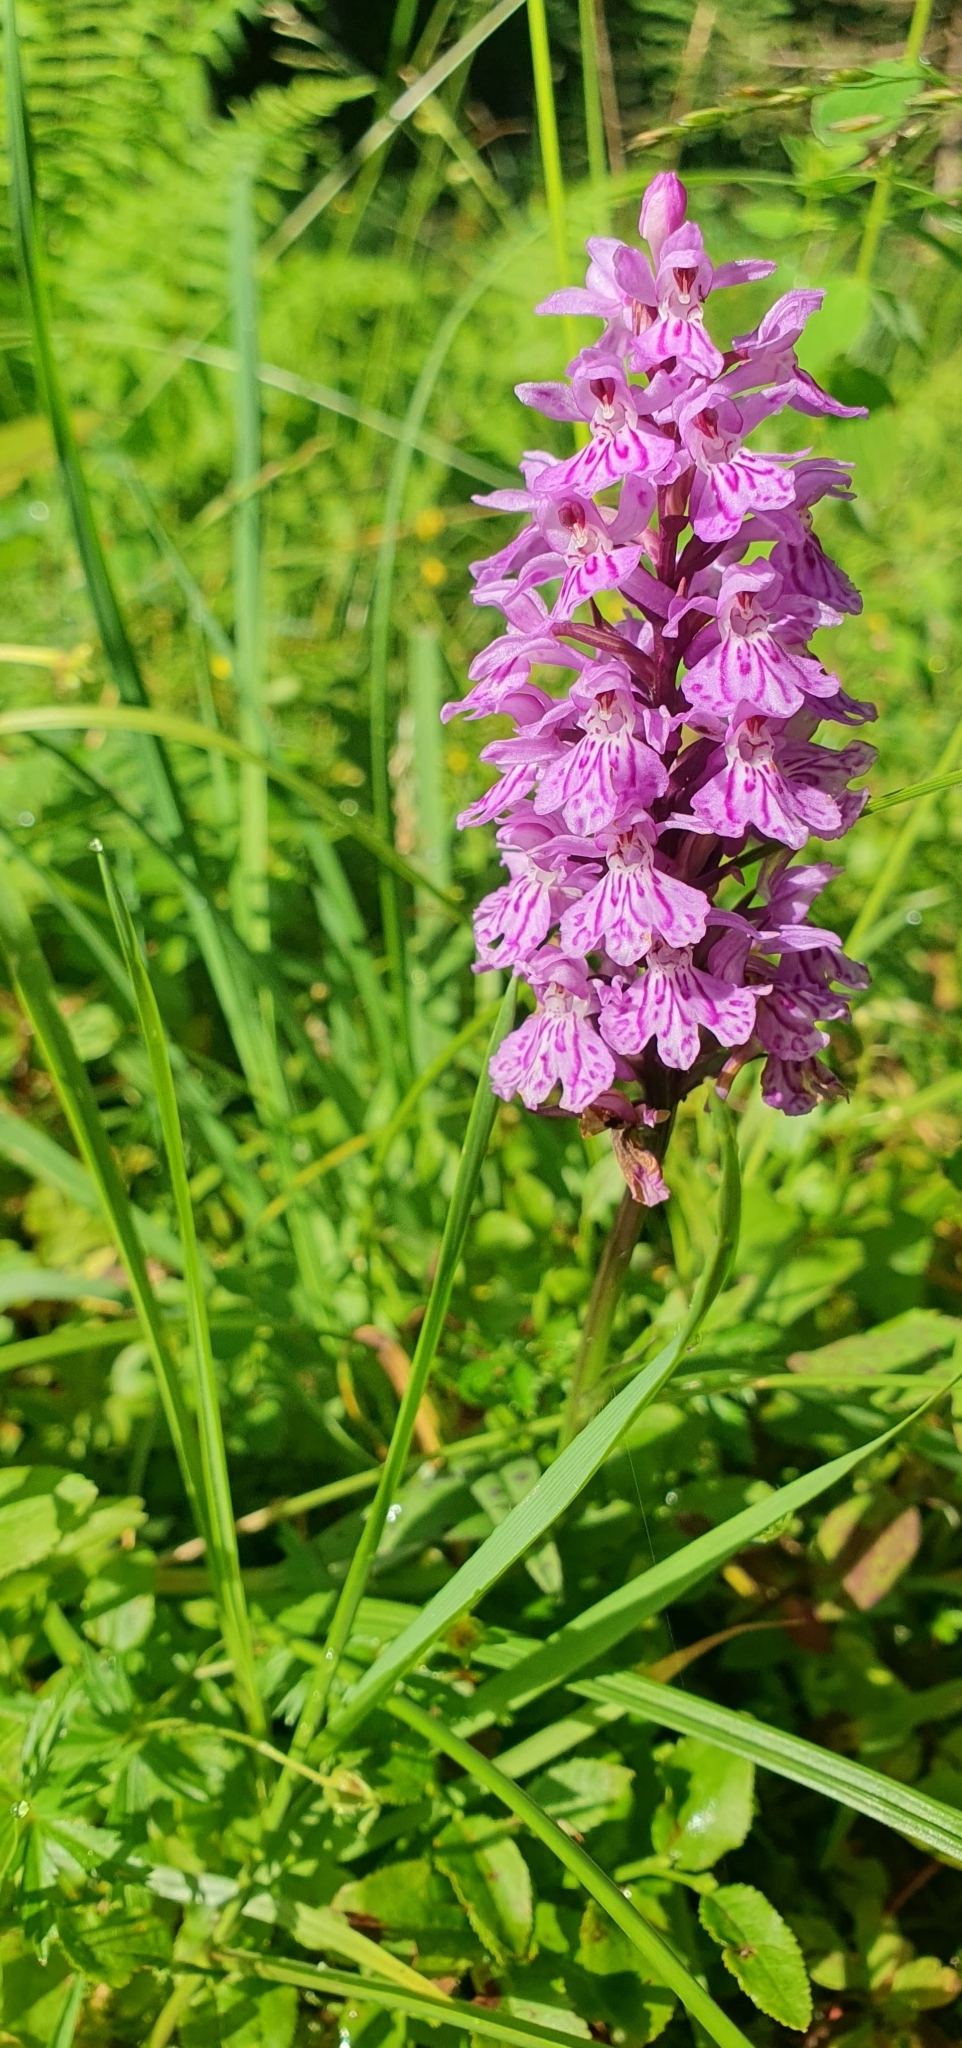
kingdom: Plantae
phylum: Tracheophyta
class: Liliopsida
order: Asparagales
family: Orchidaceae
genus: Dactylorhiza
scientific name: Dactylorhiza maculata
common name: Heath spotted-orchid
